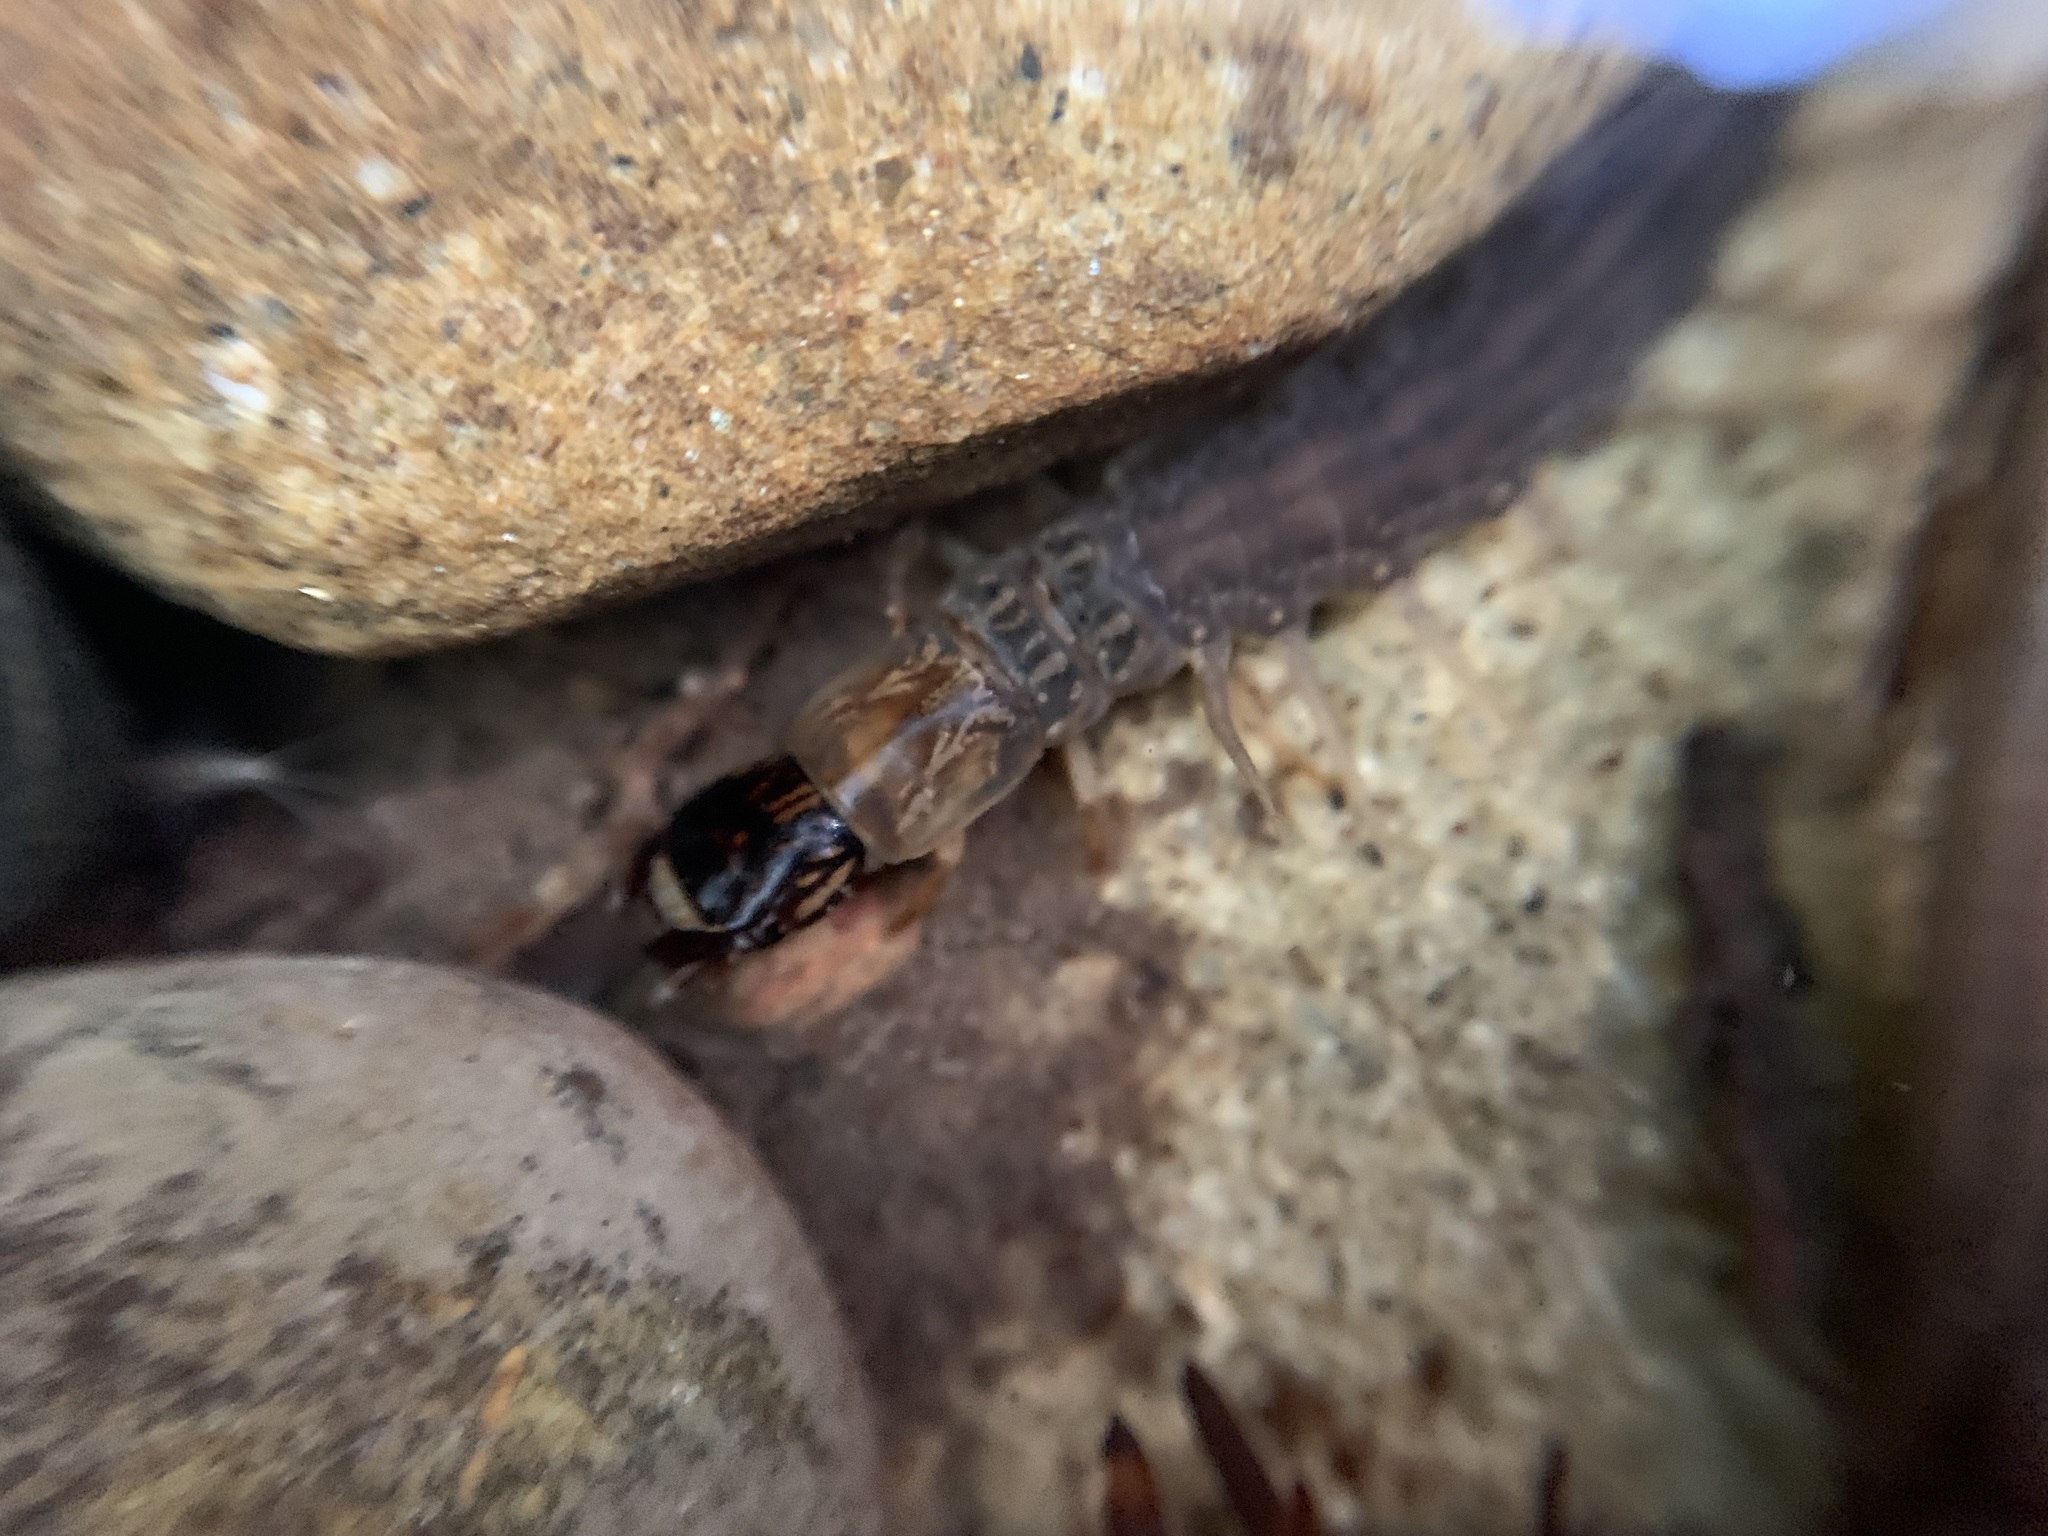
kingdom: Animalia
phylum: Arthropoda
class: Insecta
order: Megaloptera
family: Corydalidae
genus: Neohermes
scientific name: Neohermes filicornis
